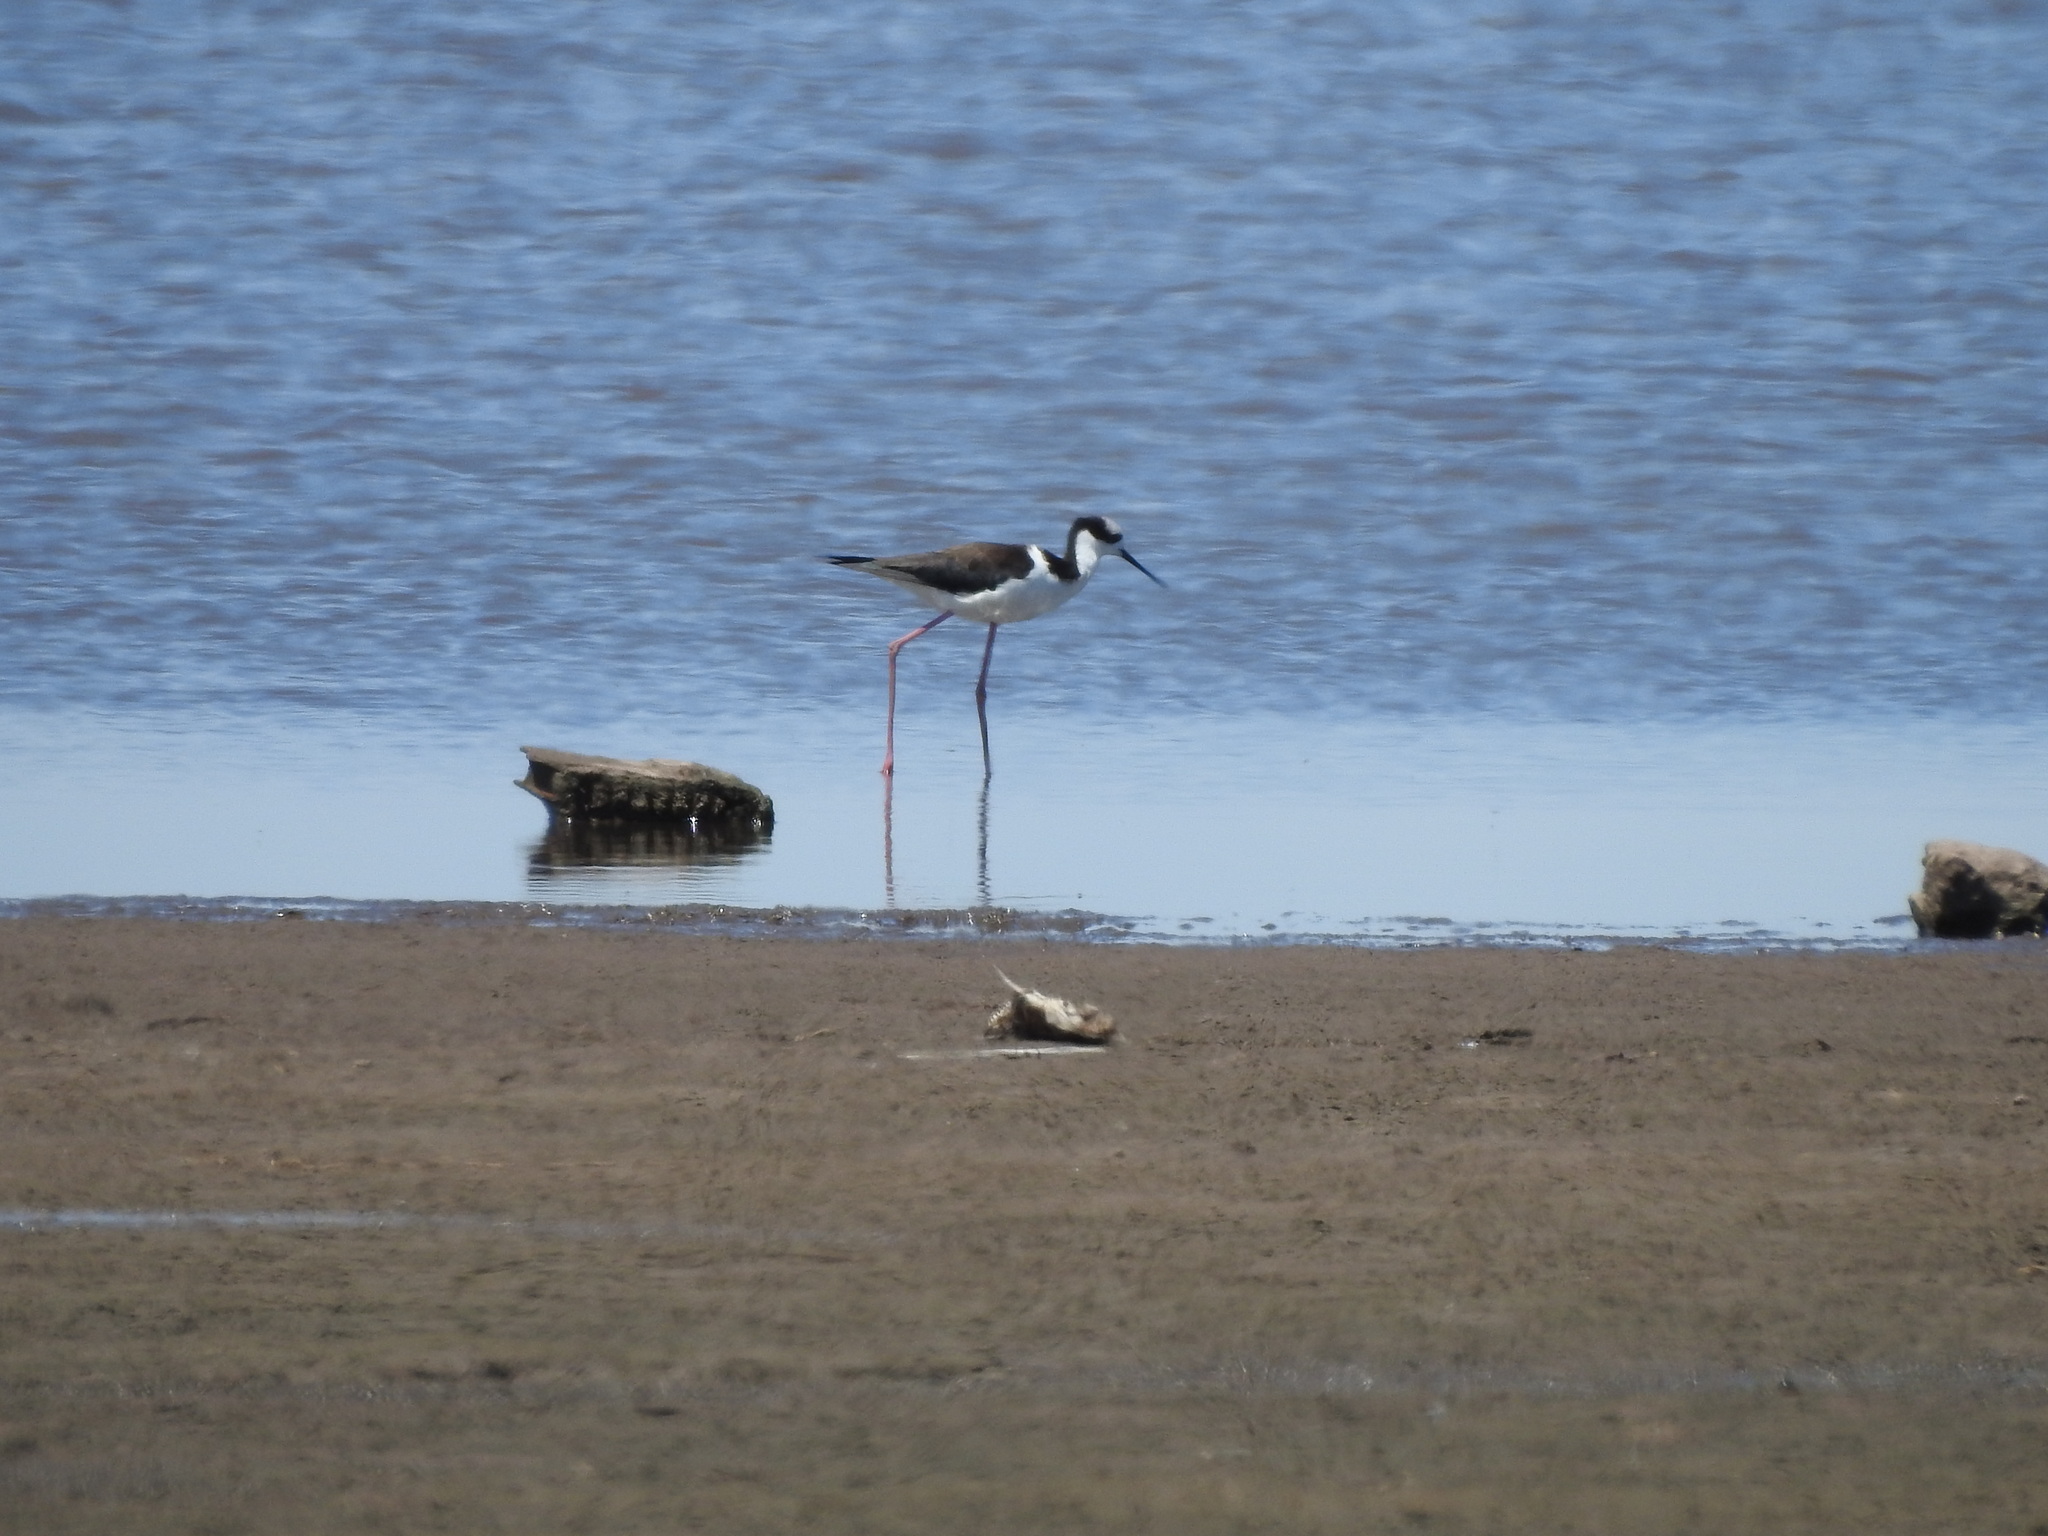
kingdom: Animalia
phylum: Chordata
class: Aves
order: Charadriiformes
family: Recurvirostridae
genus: Himantopus
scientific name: Himantopus mexicanus
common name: Black-necked stilt
